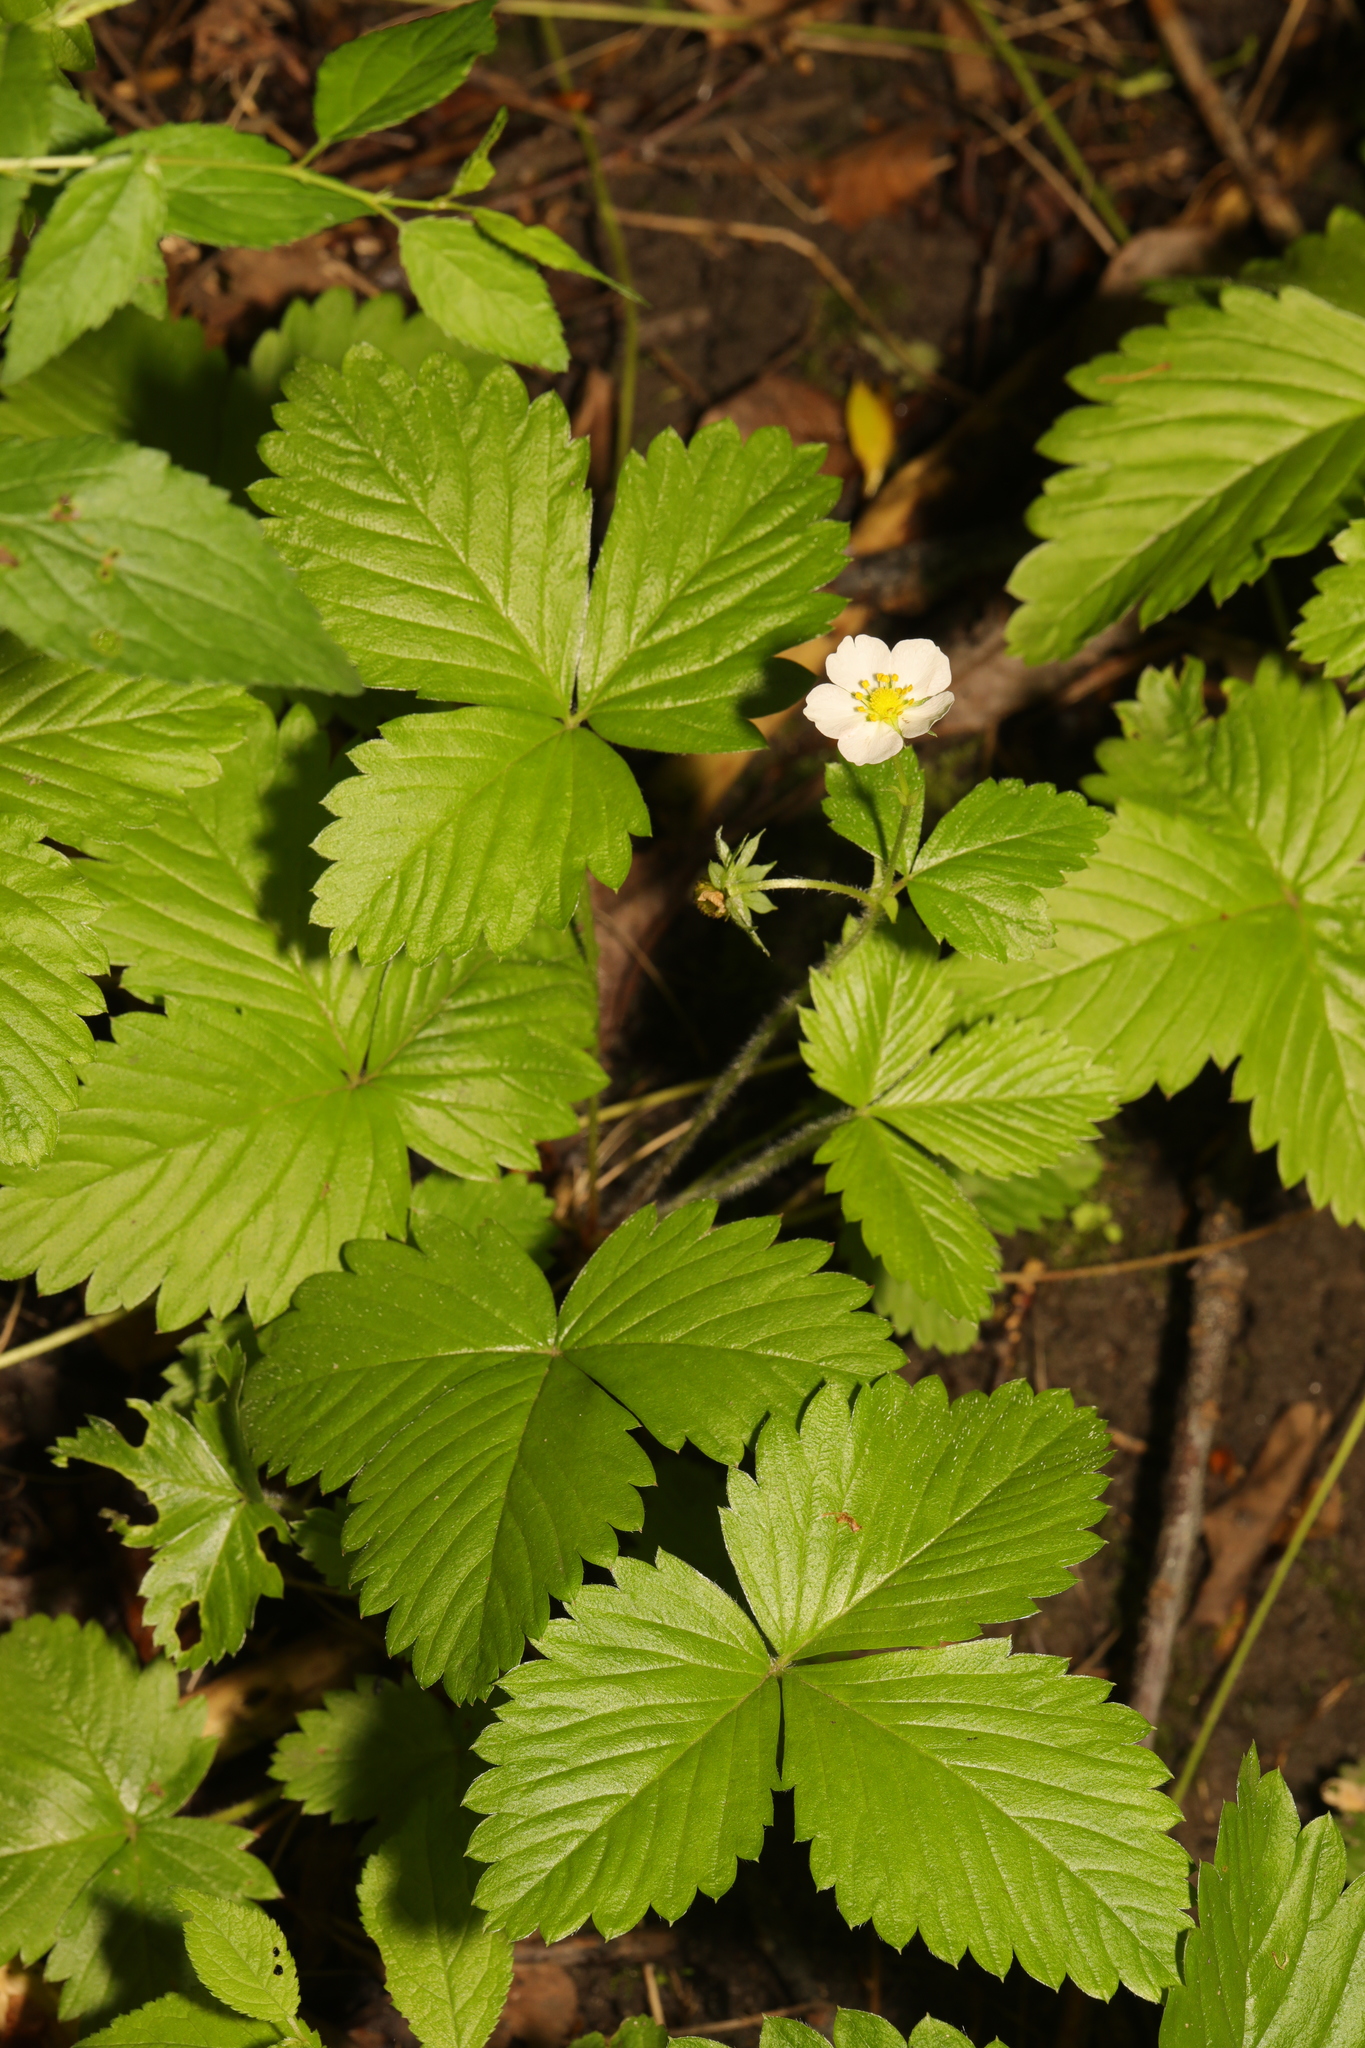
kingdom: Plantae
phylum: Tracheophyta
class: Magnoliopsida
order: Rosales
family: Rosaceae
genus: Fragaria
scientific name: Fragaria vesca
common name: Wild strawberry
